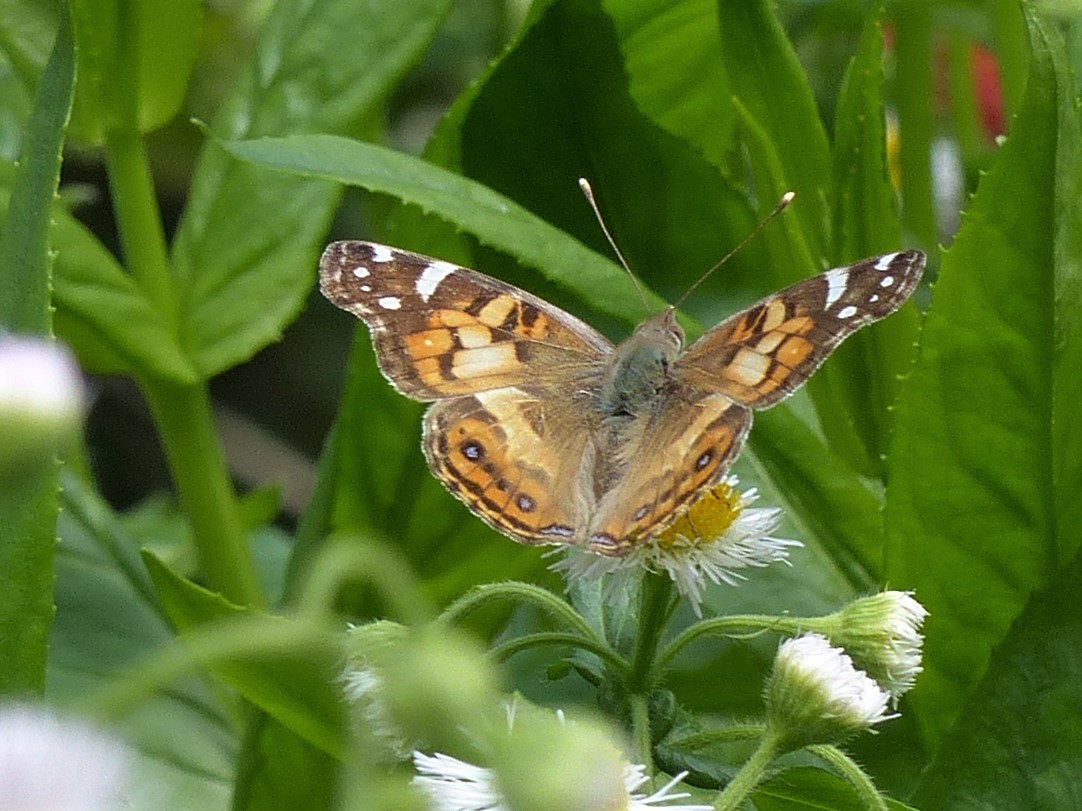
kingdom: Animalia
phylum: Arthropoda
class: Insecta
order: Lepidoptera
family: Nymphalidae
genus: Vanessa
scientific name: Vanessa virginiensis
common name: American lady
